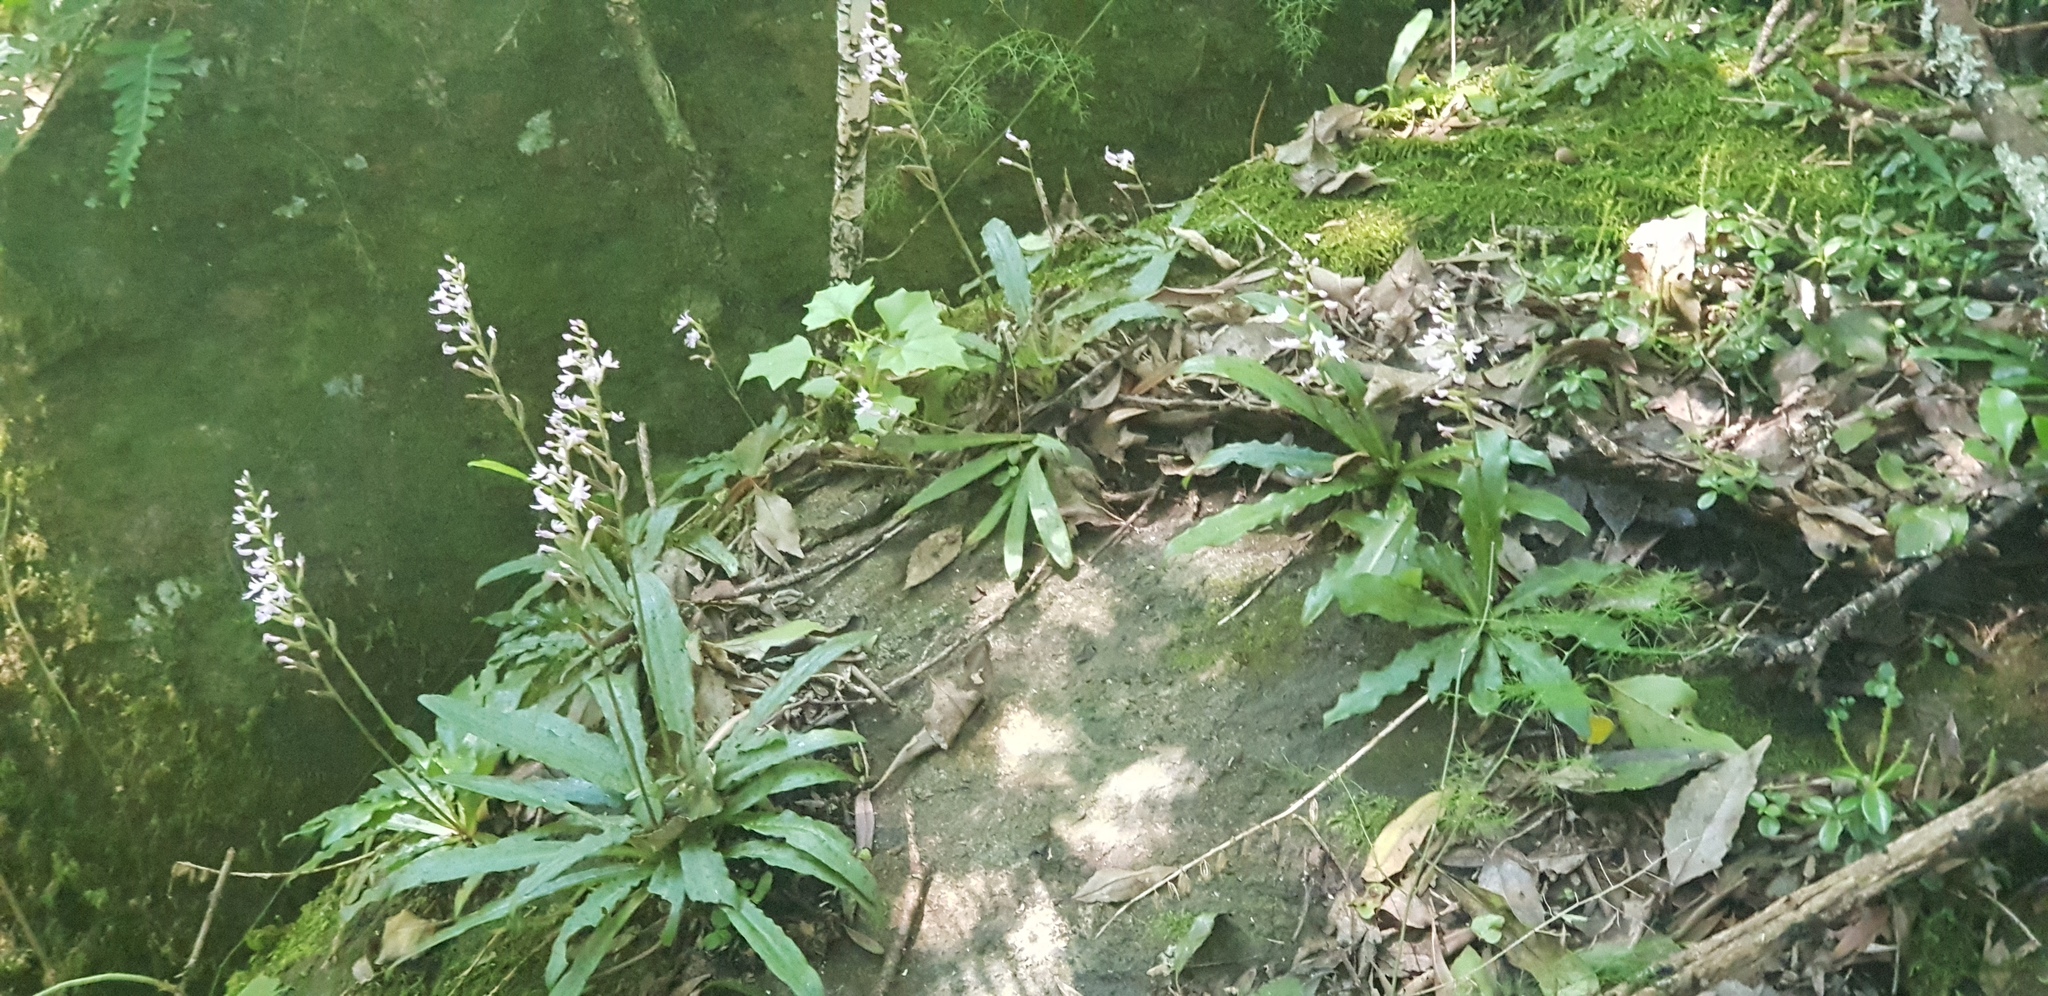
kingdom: Plantae
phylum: Tracheophyta
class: Liliopsida
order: Asparagales
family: Orchidaceae
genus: Stenoglottis
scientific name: Stenoglottis fimbriata
